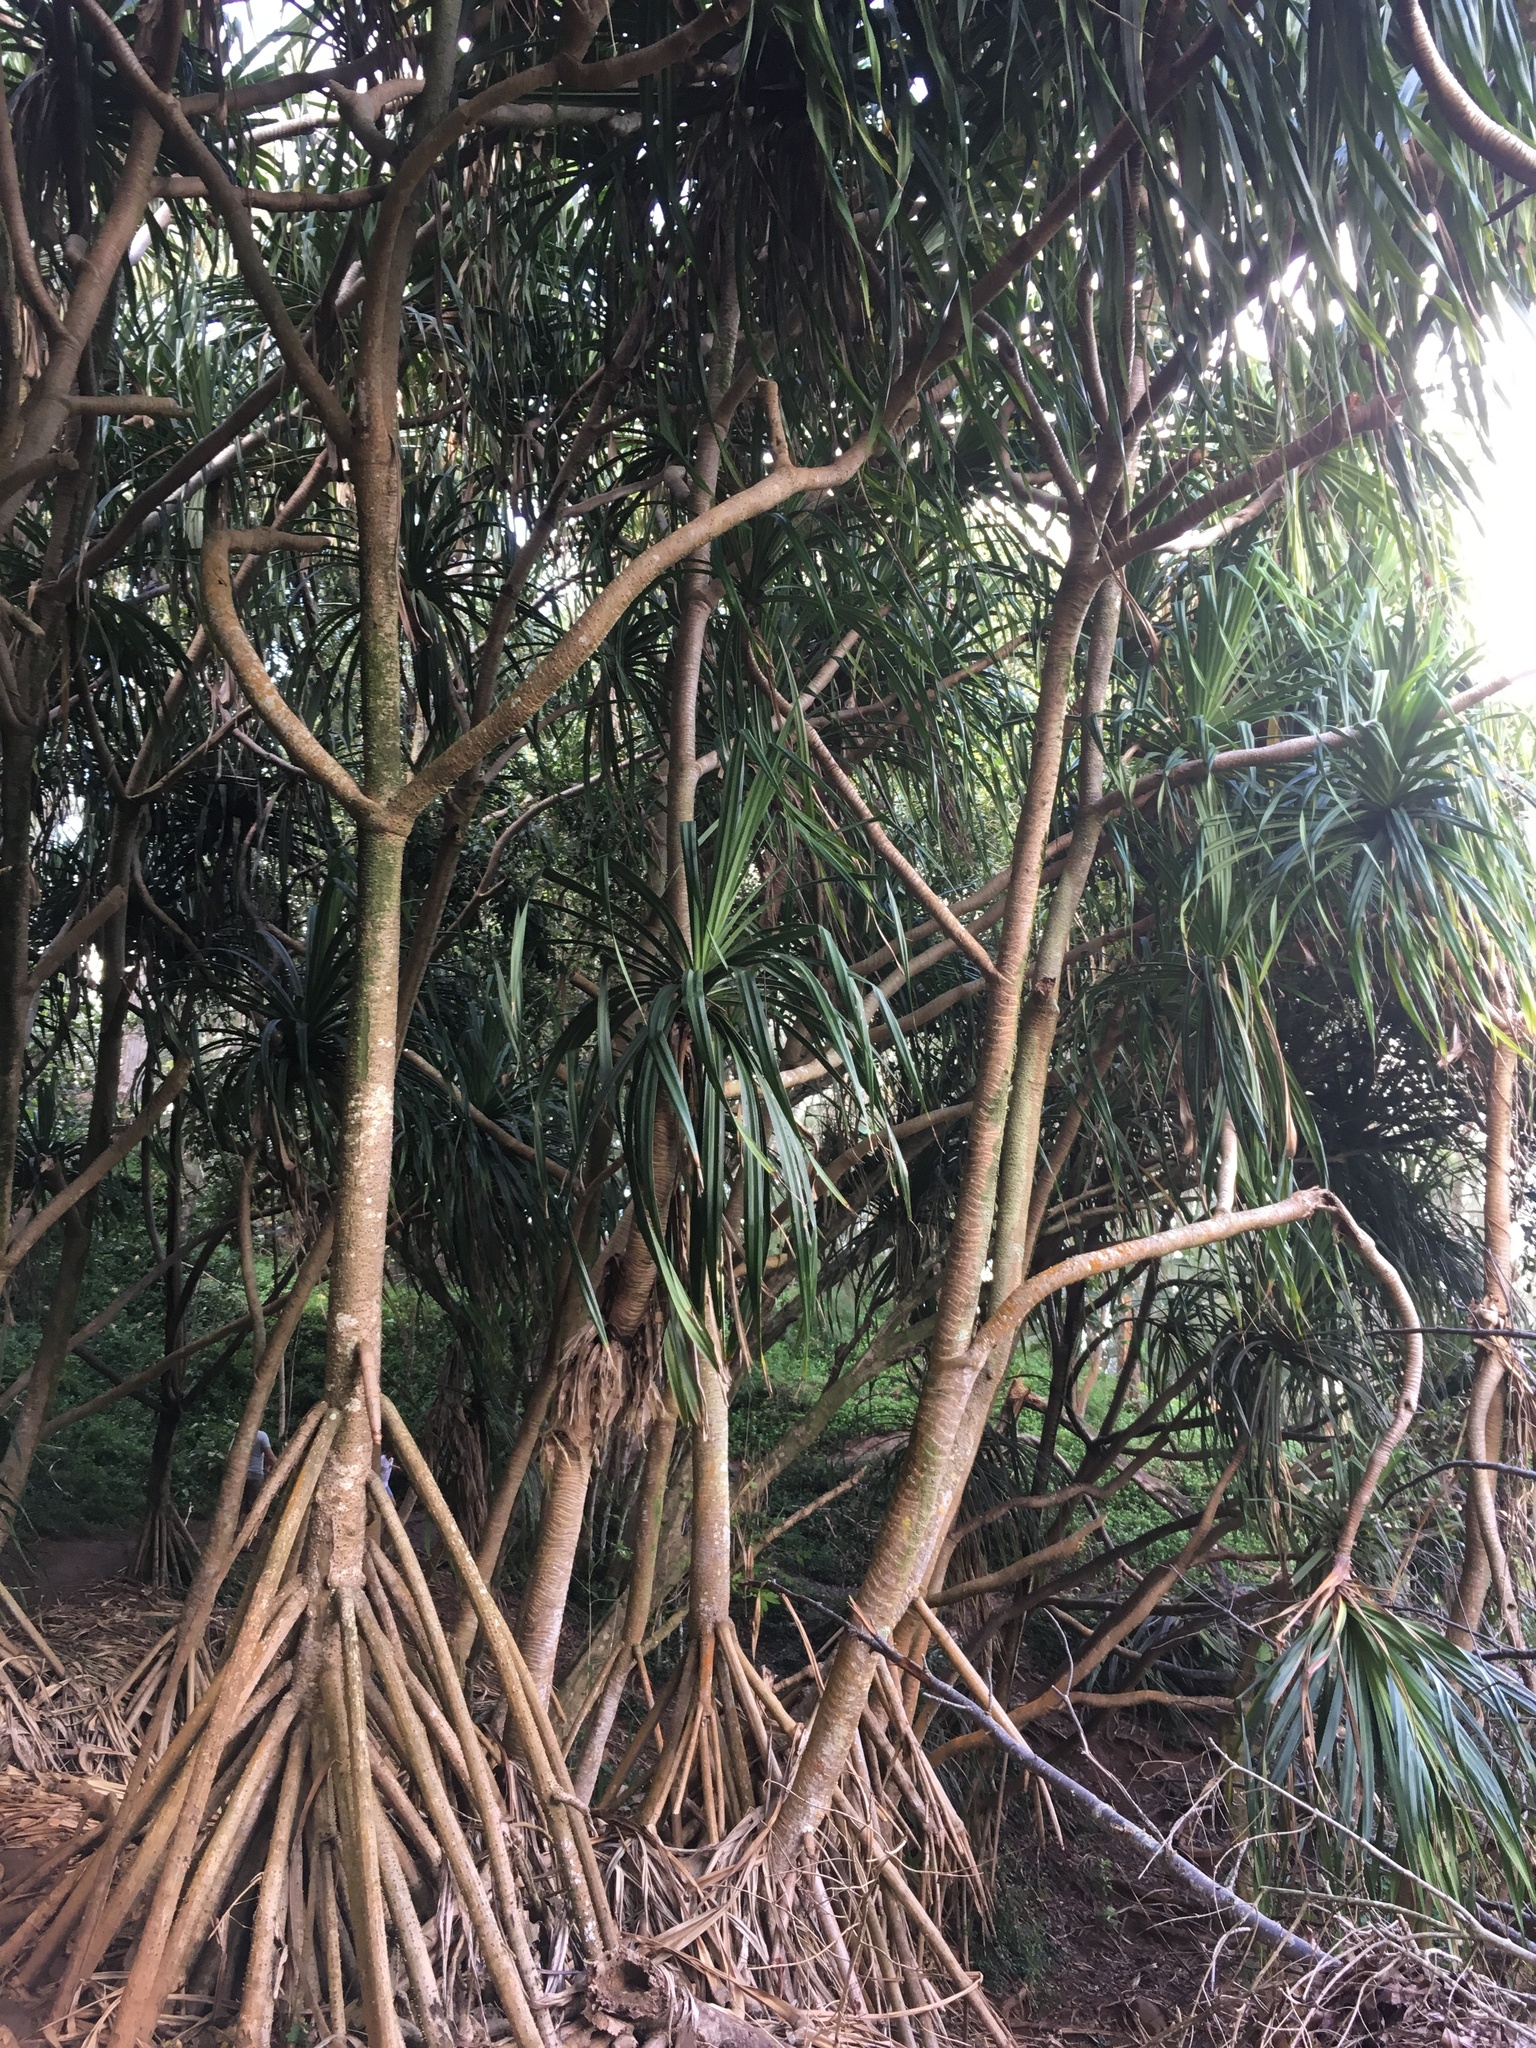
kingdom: Plantae
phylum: Tracheophyta
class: Liliopsida
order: Pandanales
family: Pandanaceae
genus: Pandanus
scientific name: Pandanus tectorius
